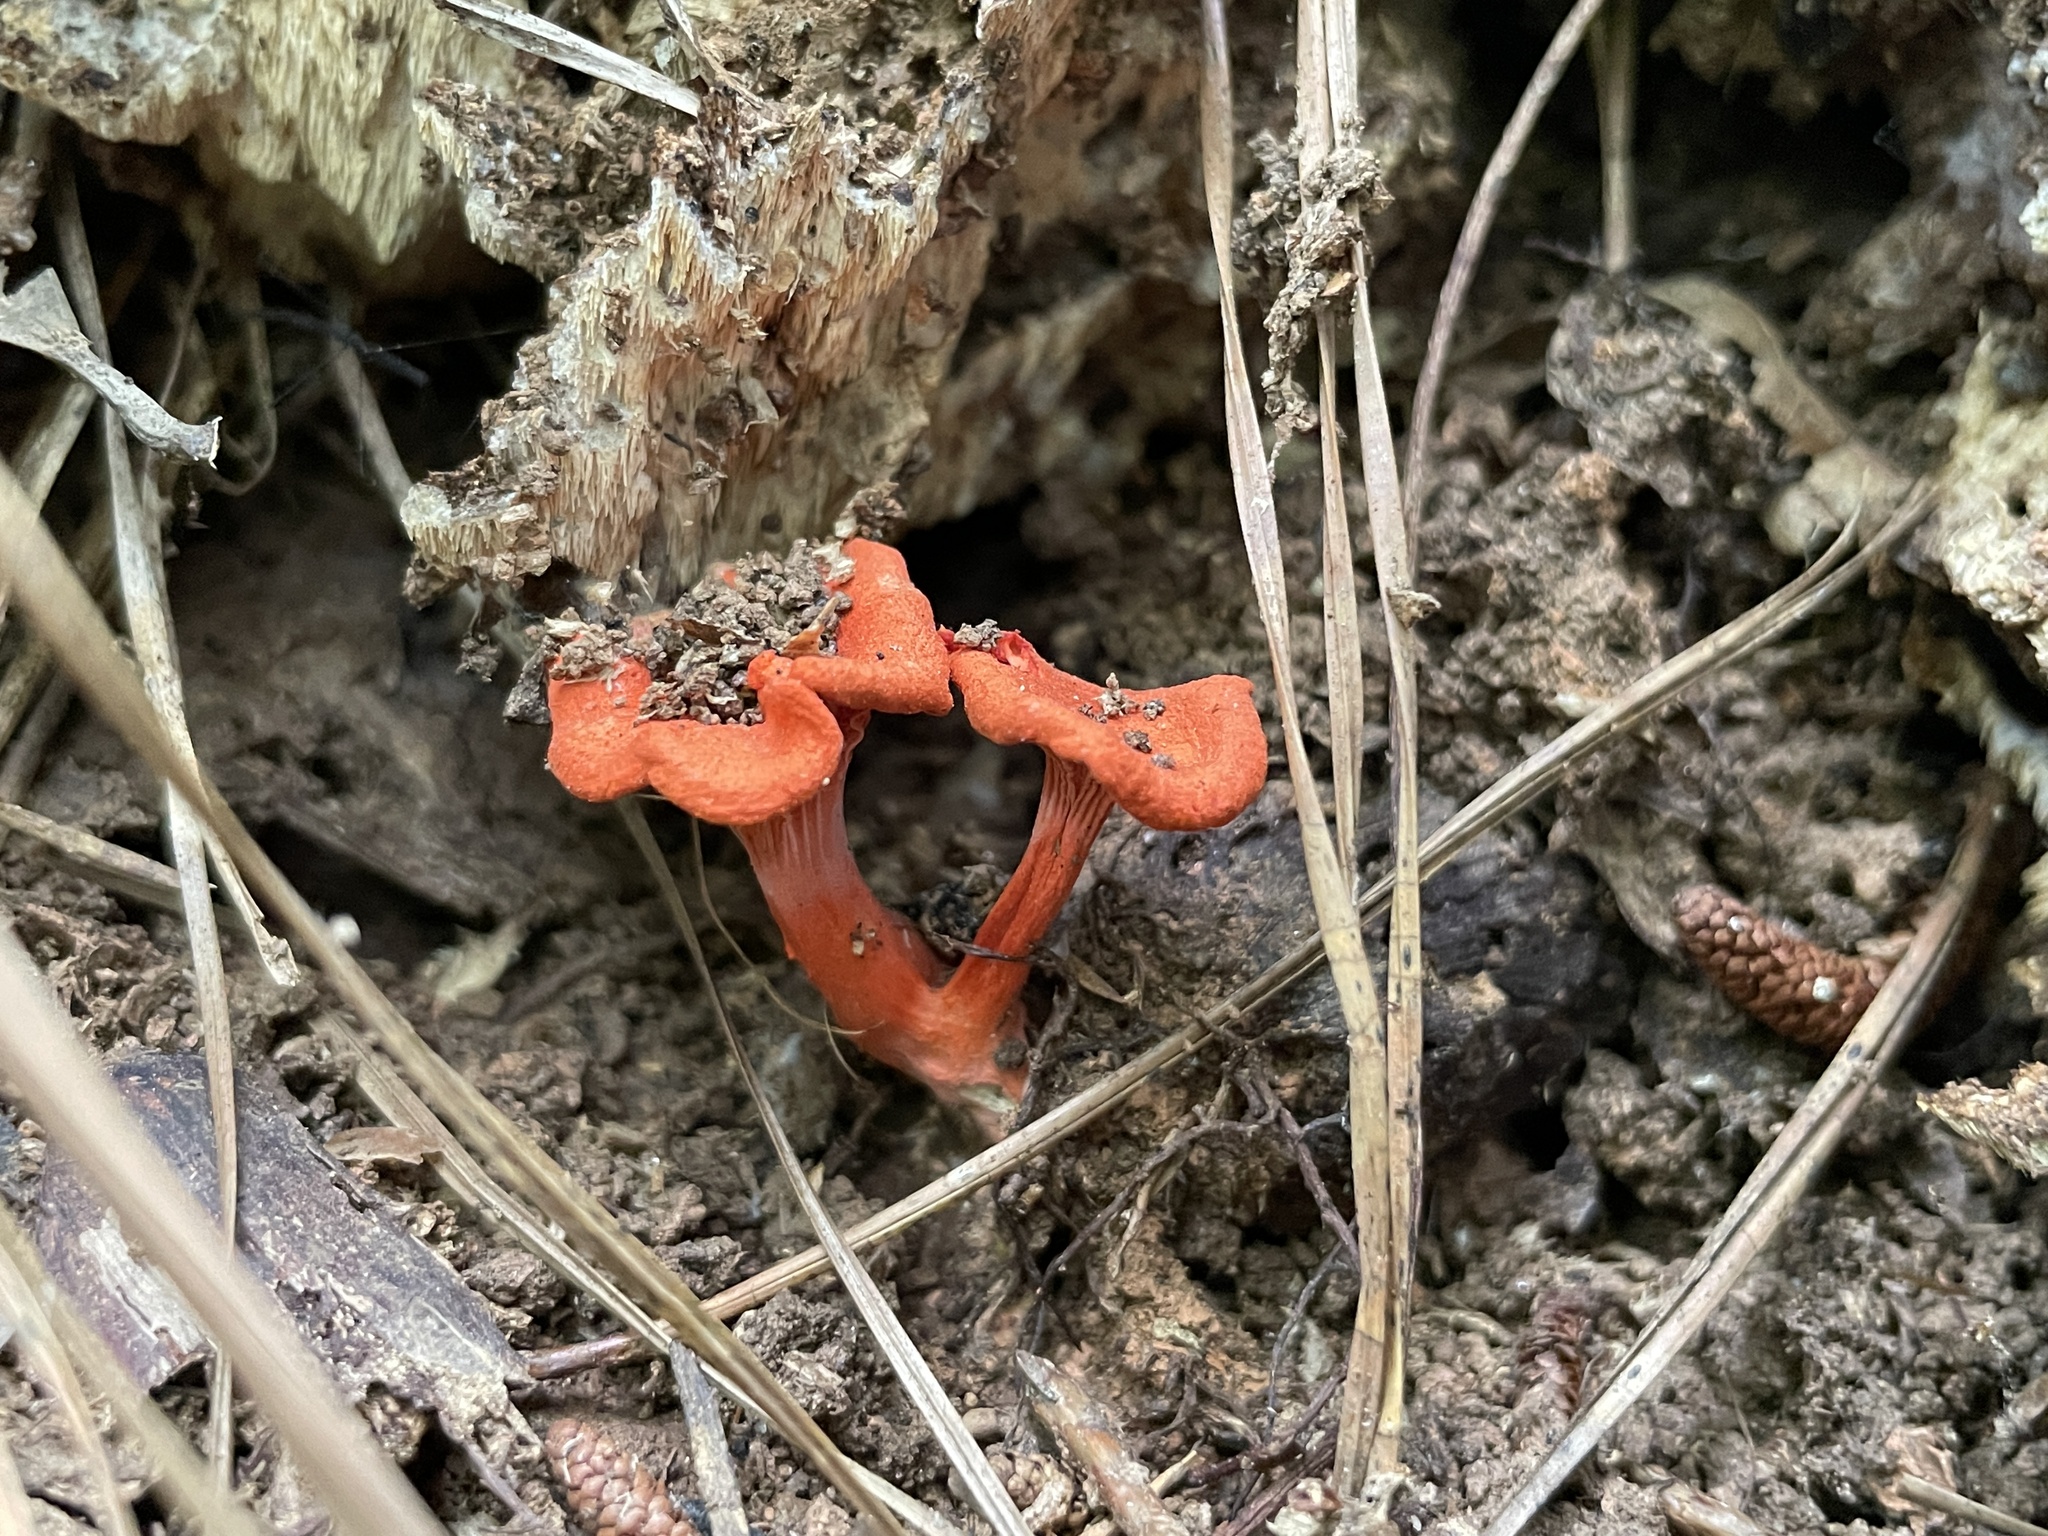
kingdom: Fungi
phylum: Basidiomycota
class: Agaricomycetes
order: Cantharellales
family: Hydnaceae
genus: Cantharellus
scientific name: Cantharellus cinnabarinus
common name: Cinnabar chanterelle
